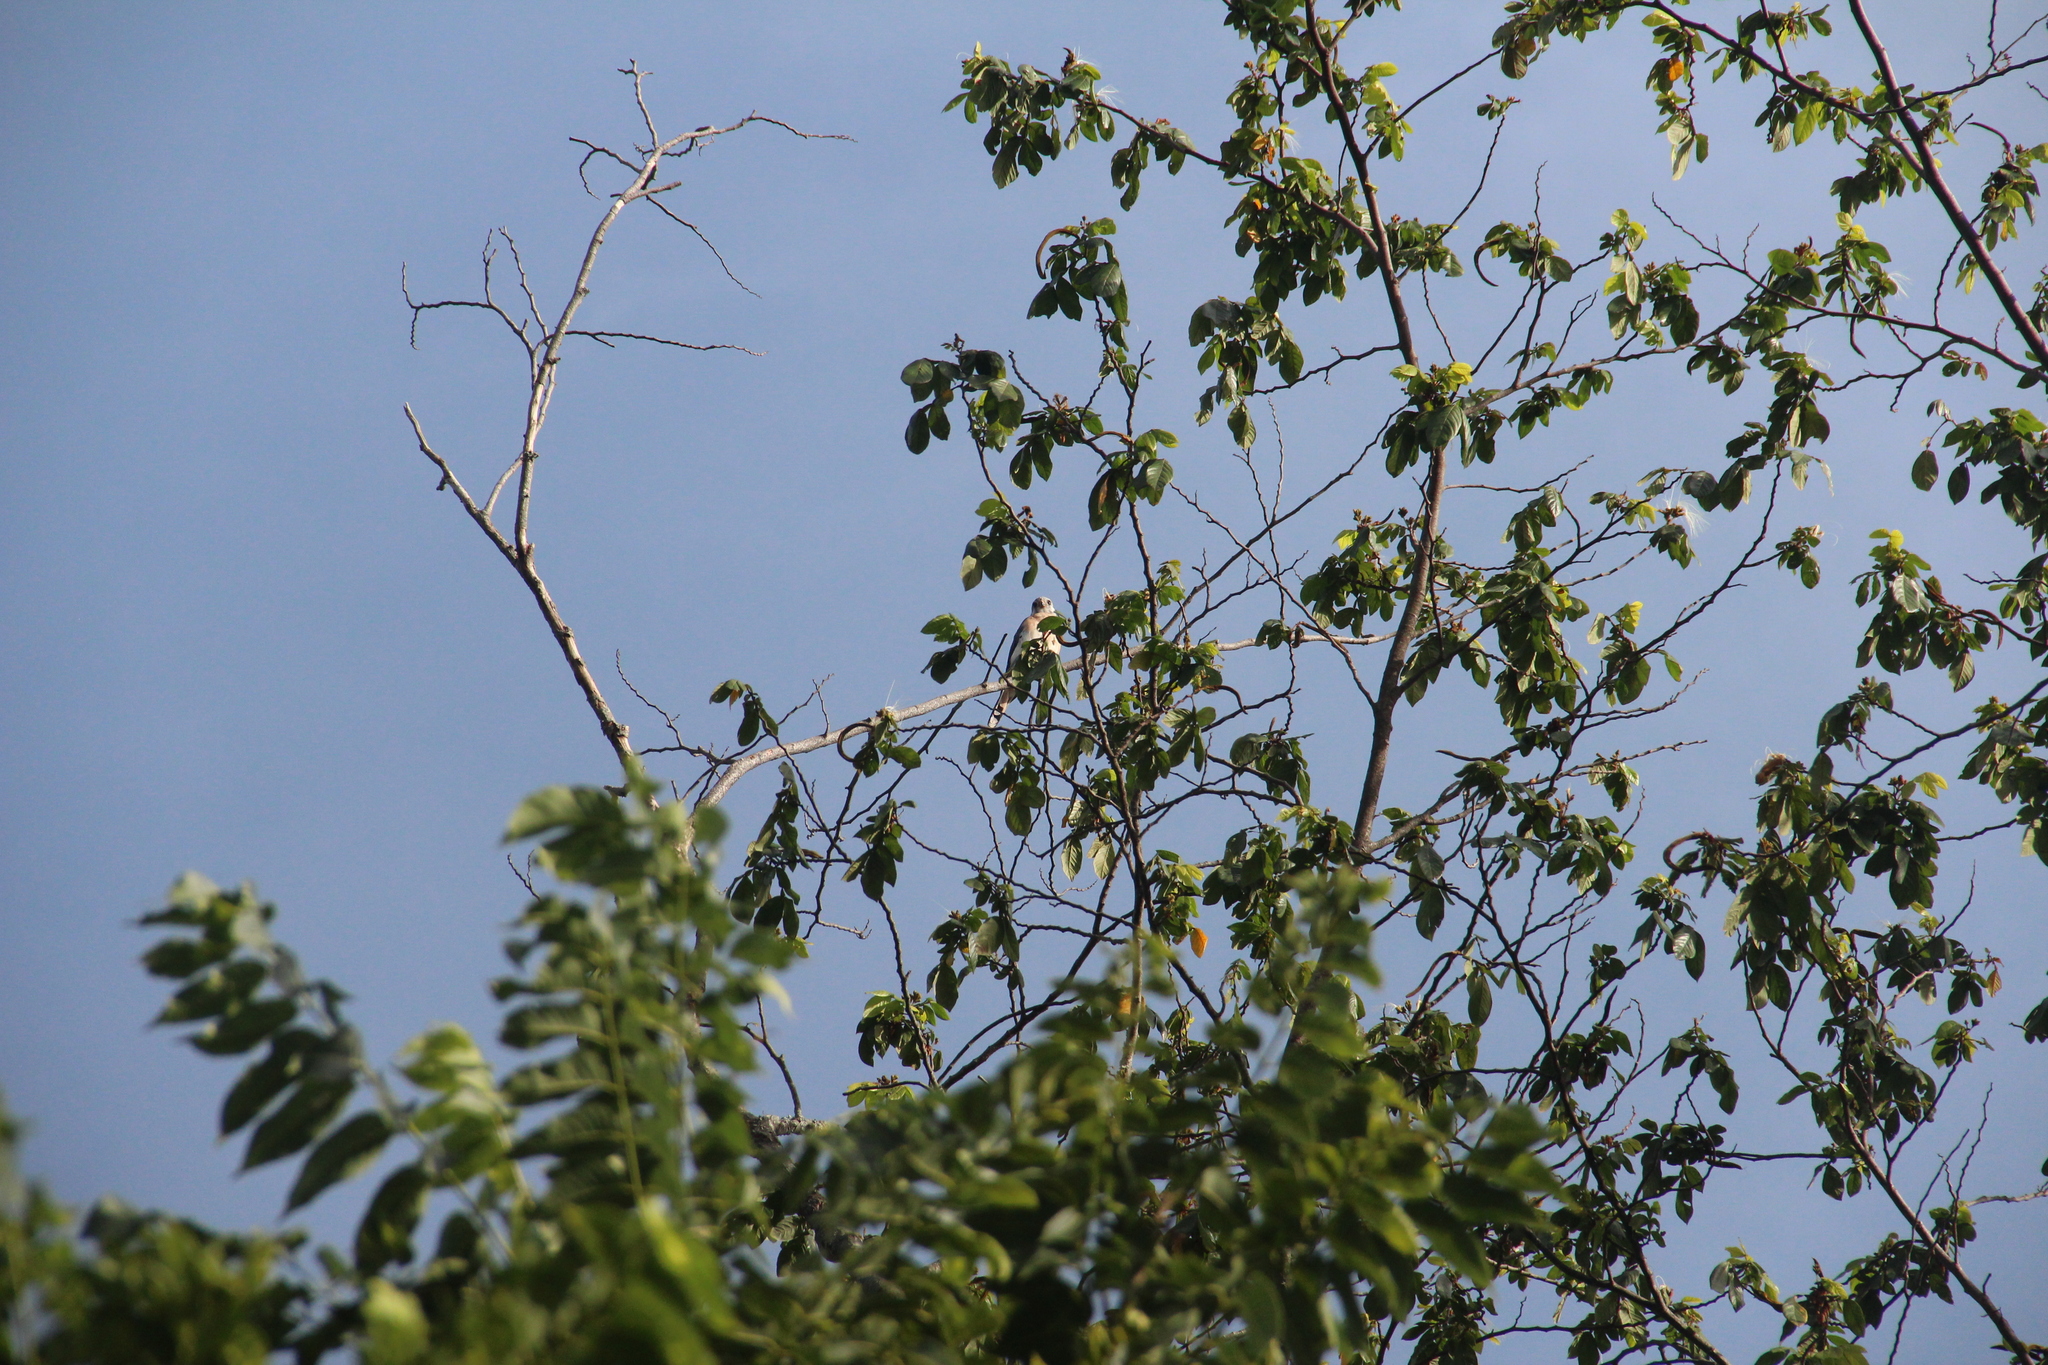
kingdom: Animalia
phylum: Chordata
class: Aves
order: Falconiformes
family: Falconidae
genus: Falco
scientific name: Falco sparverius
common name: American kestrel
